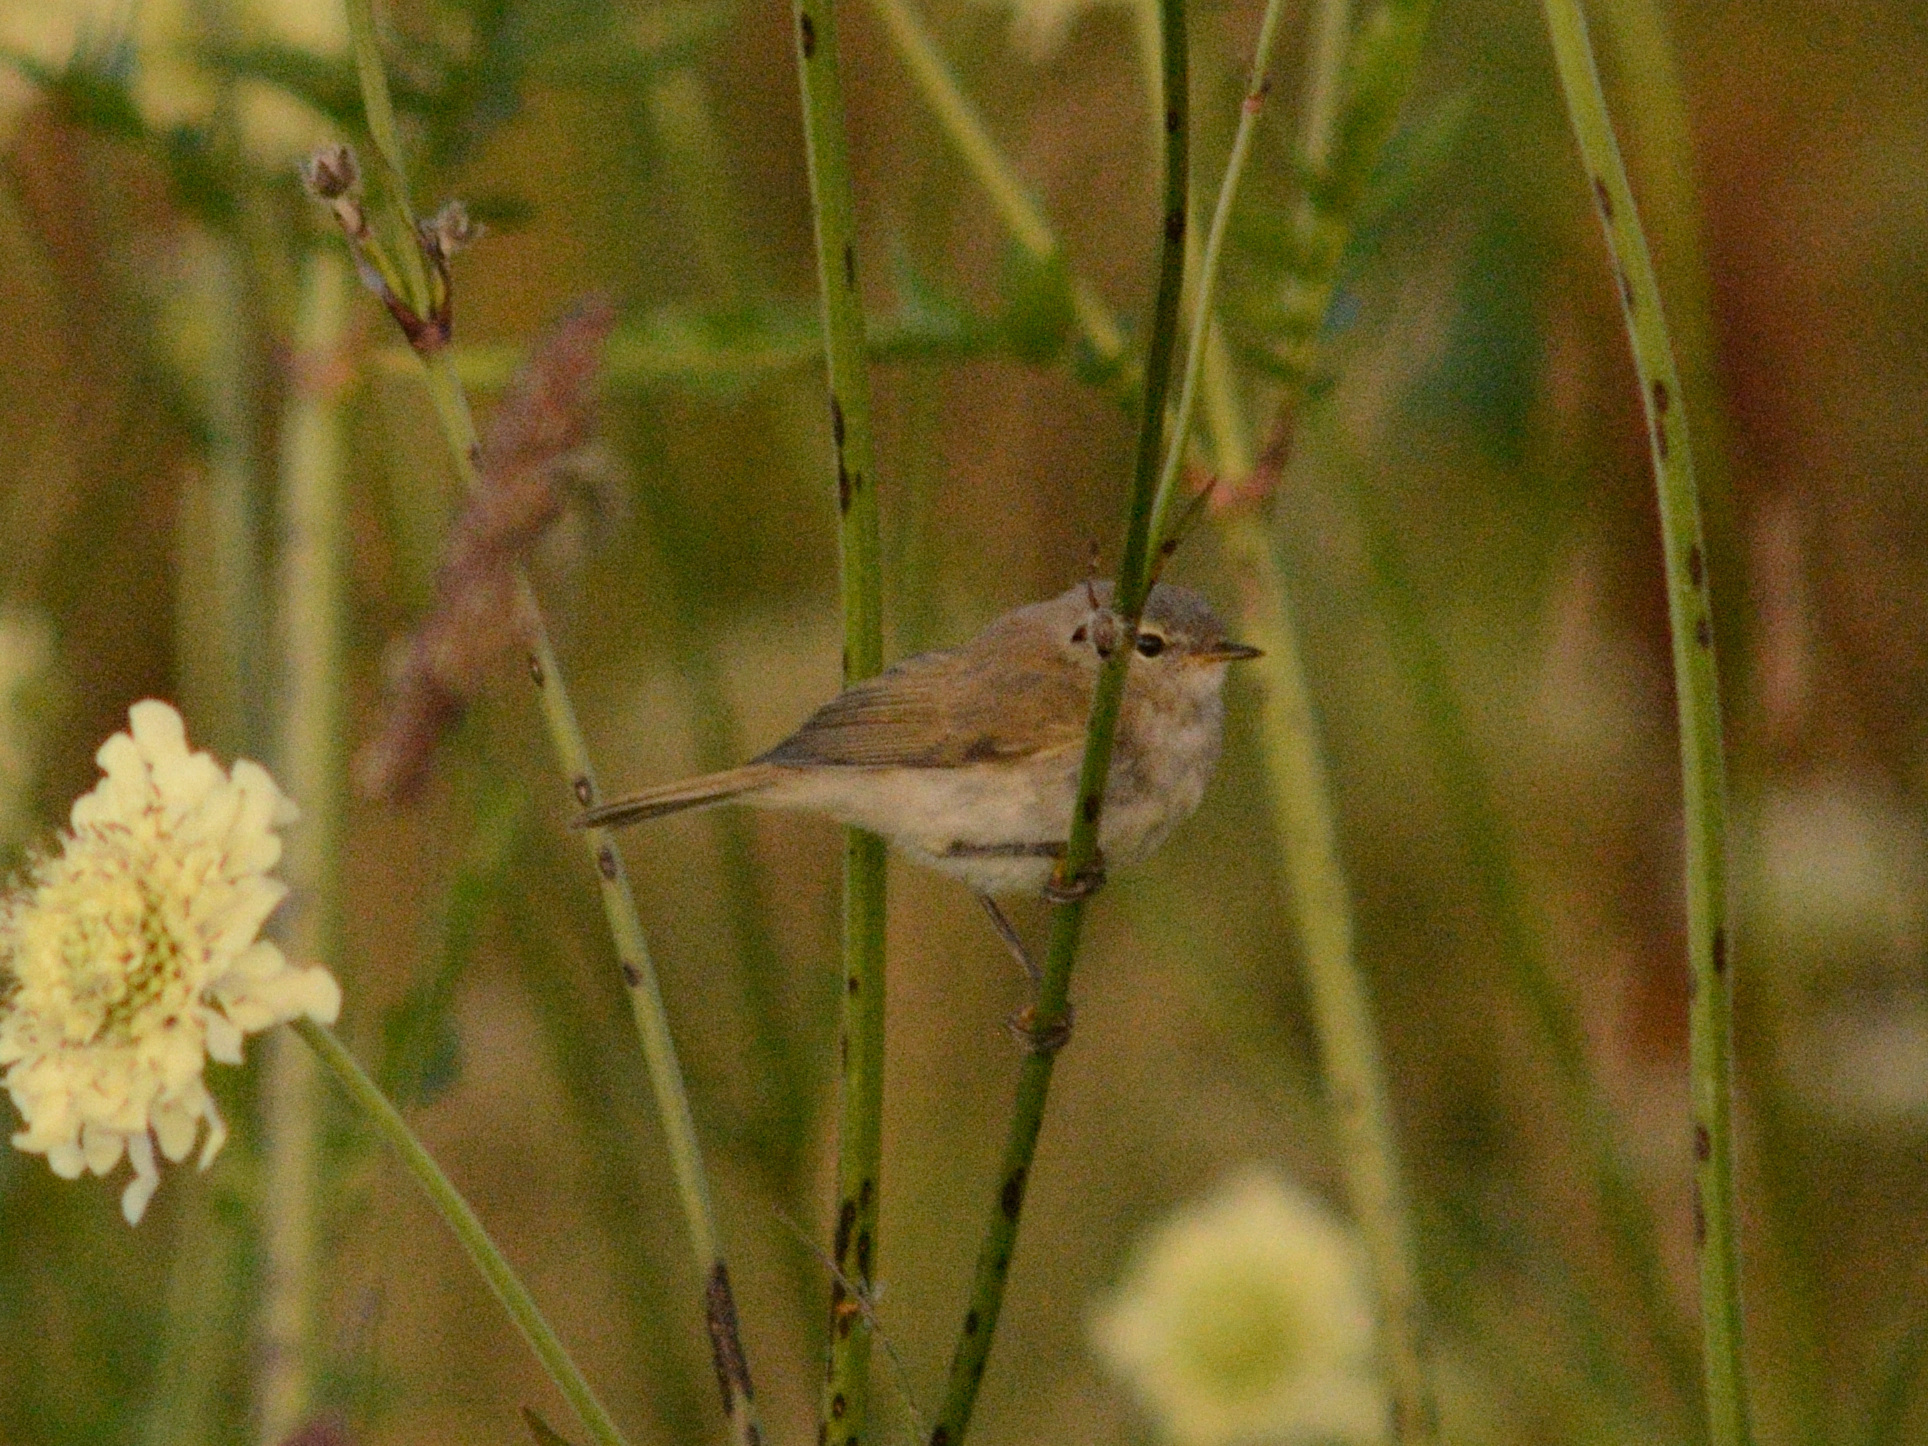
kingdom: Animalia
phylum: Chordata
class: Aves
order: Passeriformes
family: Phylloscopidae
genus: Phylloscopus
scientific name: Phylloscopus collybita
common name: Common chiffchaff
